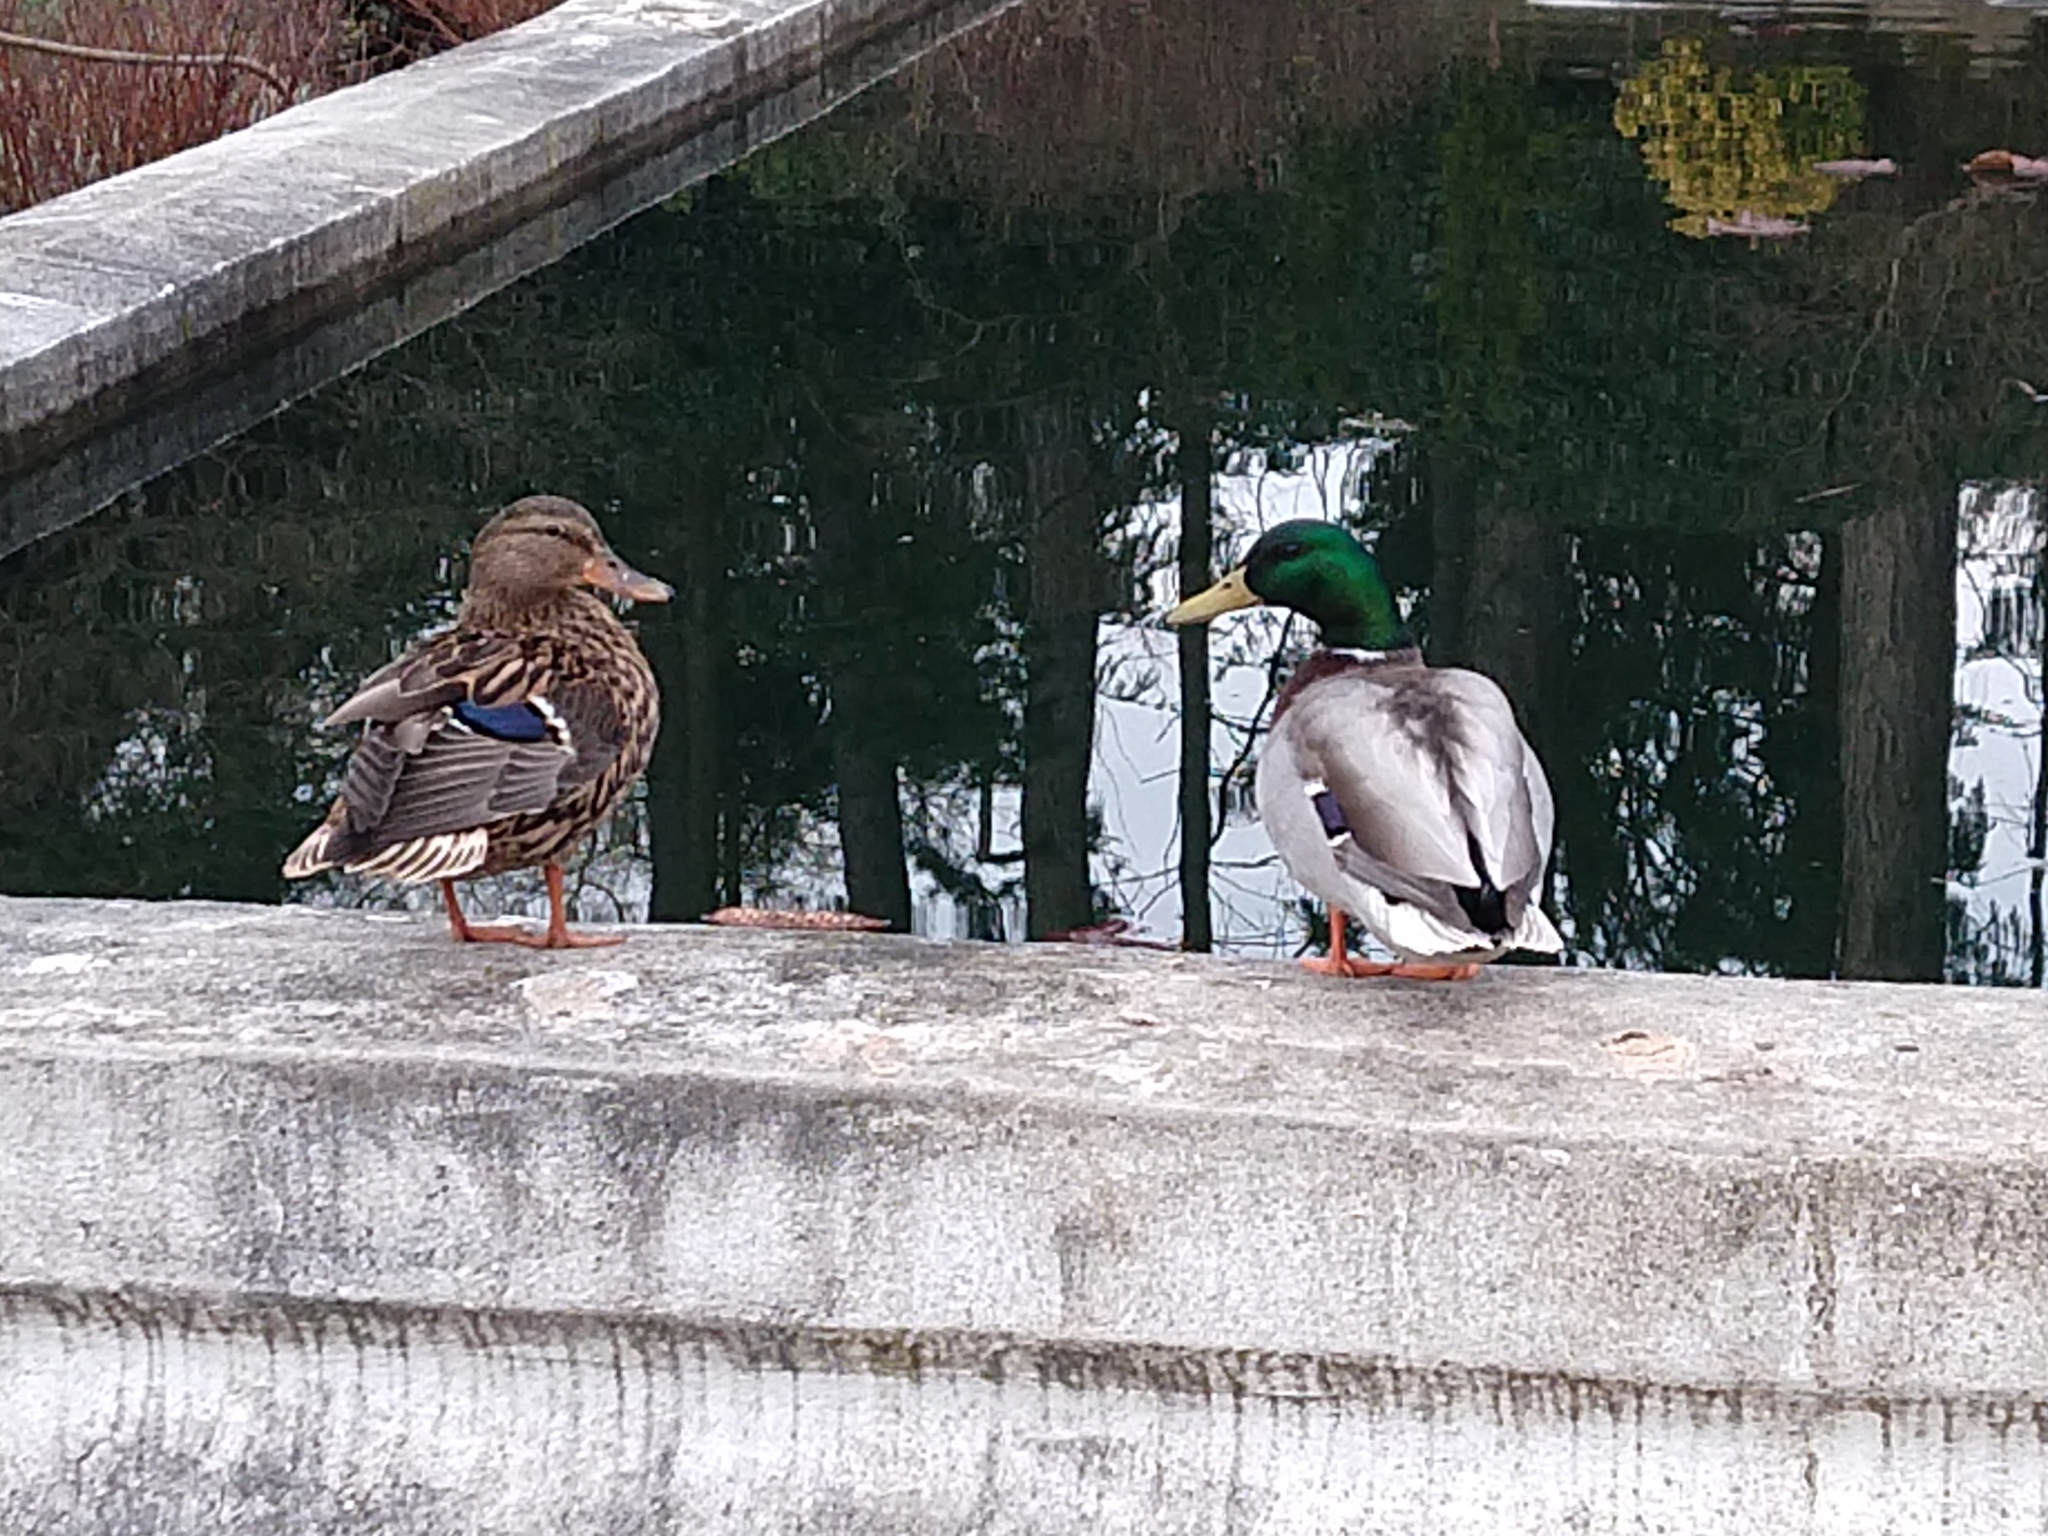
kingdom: Animalia
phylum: Chordata
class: Aves
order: Anseriformes
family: Anatidae
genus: Anas
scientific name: Anas platyrhynchos
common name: Mallard
